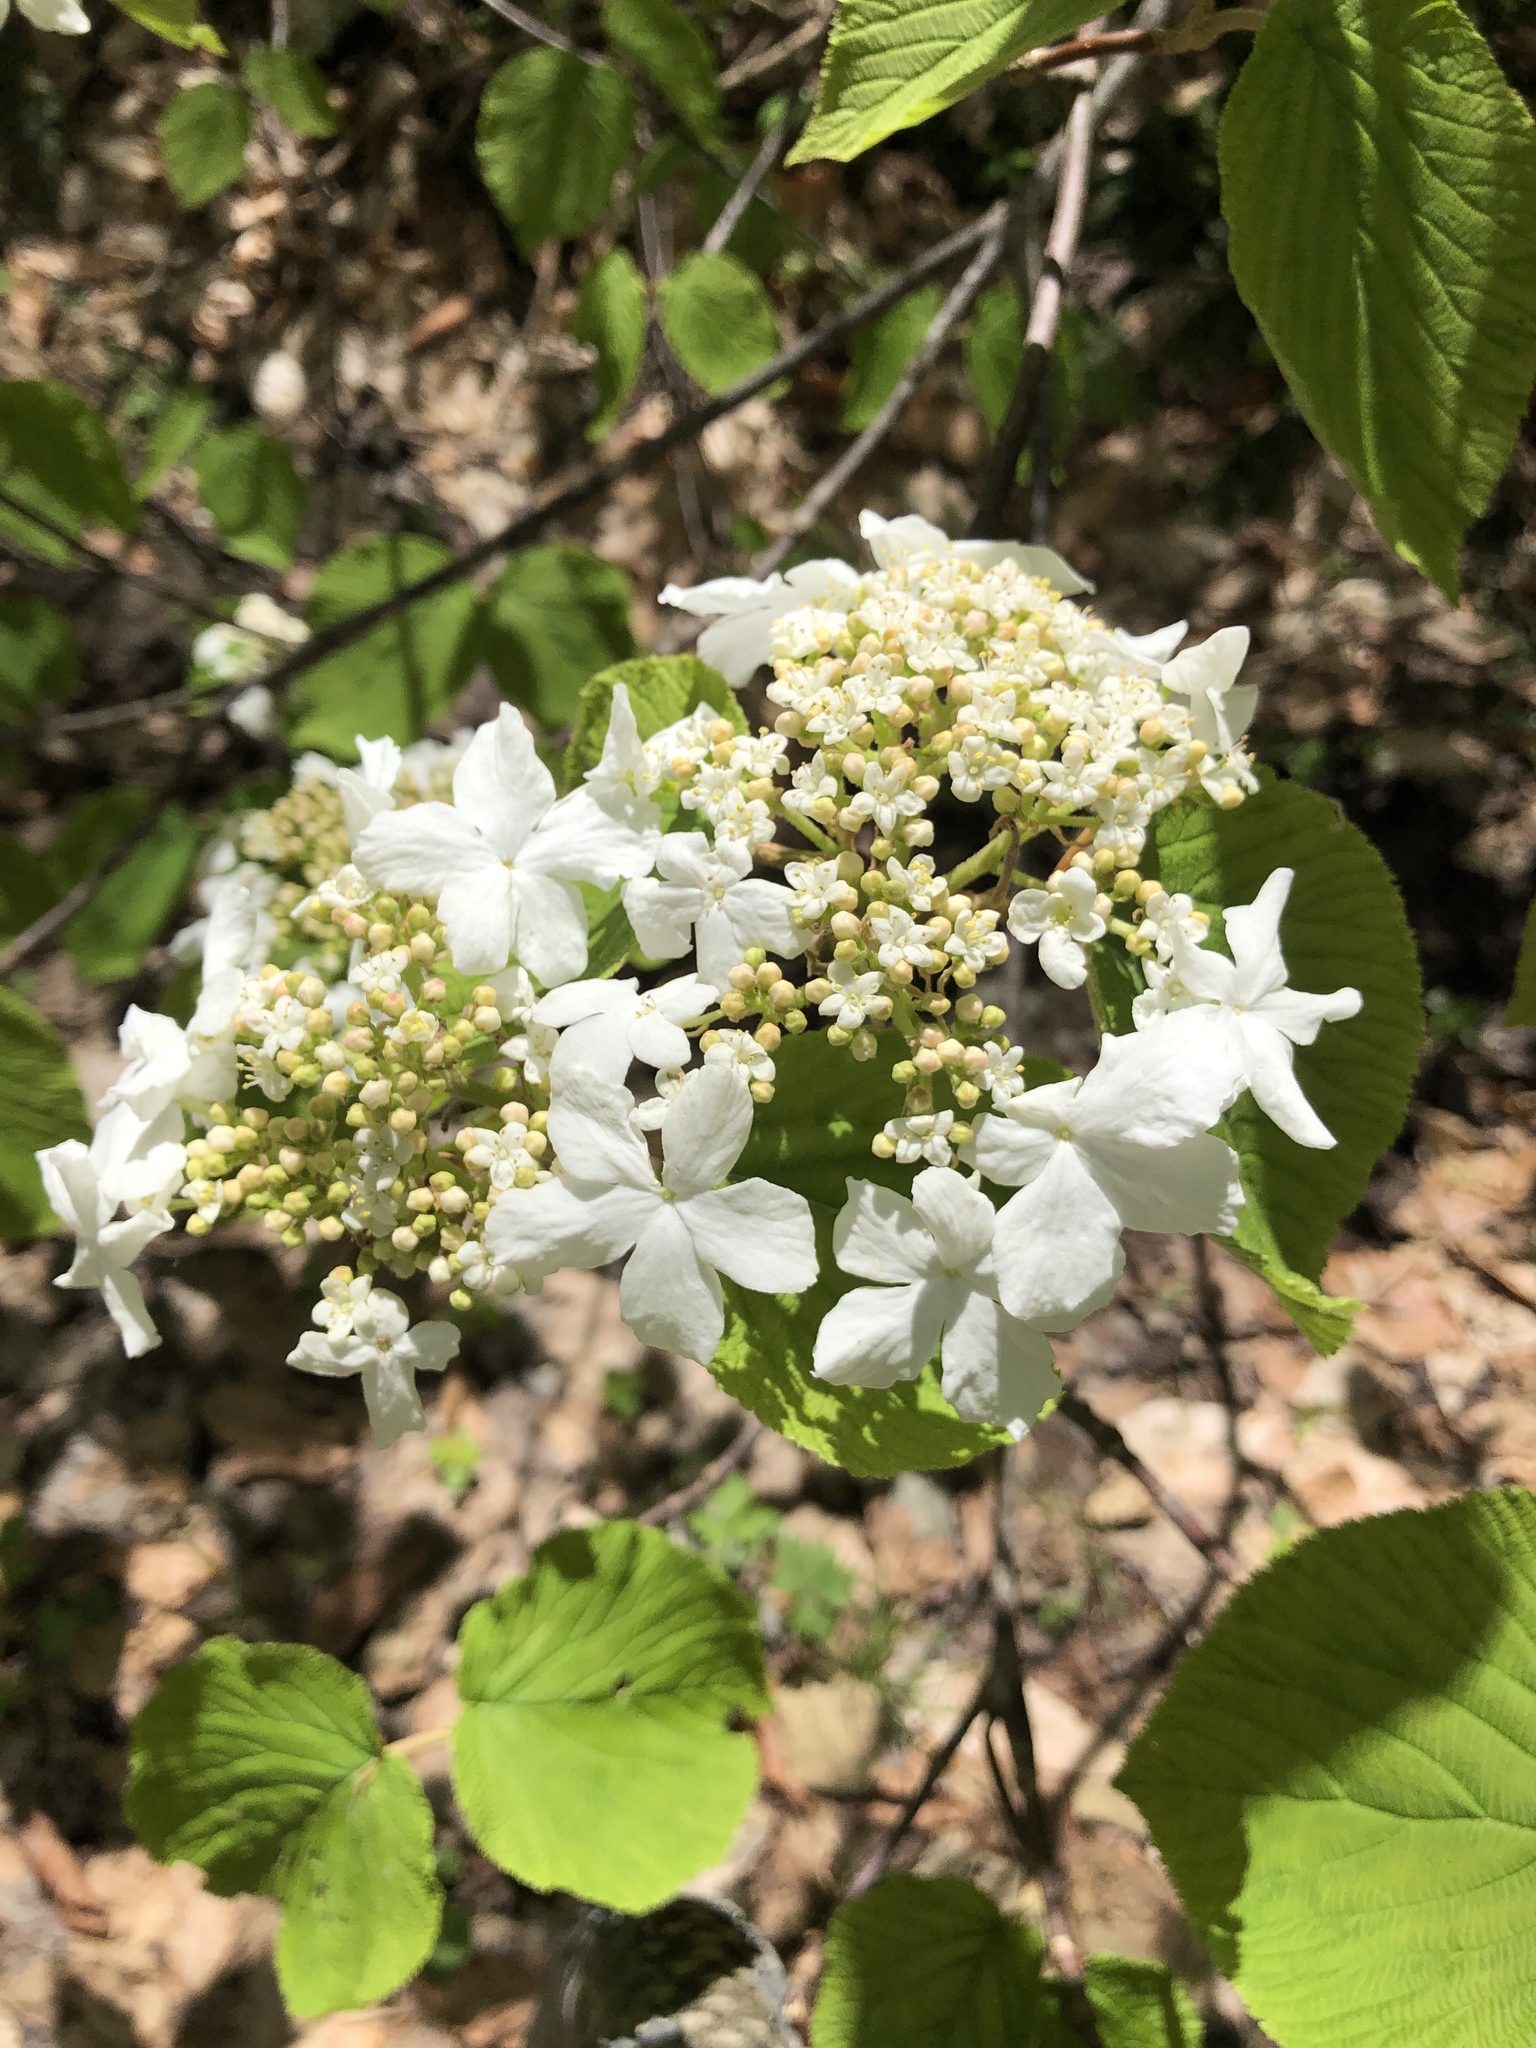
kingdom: Plantae
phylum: Tracheophyta
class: Magnoliopsida
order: Dipsacales
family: Viburnaceae
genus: Viburnum
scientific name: Viburnum lantanoides
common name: Hobblebush
